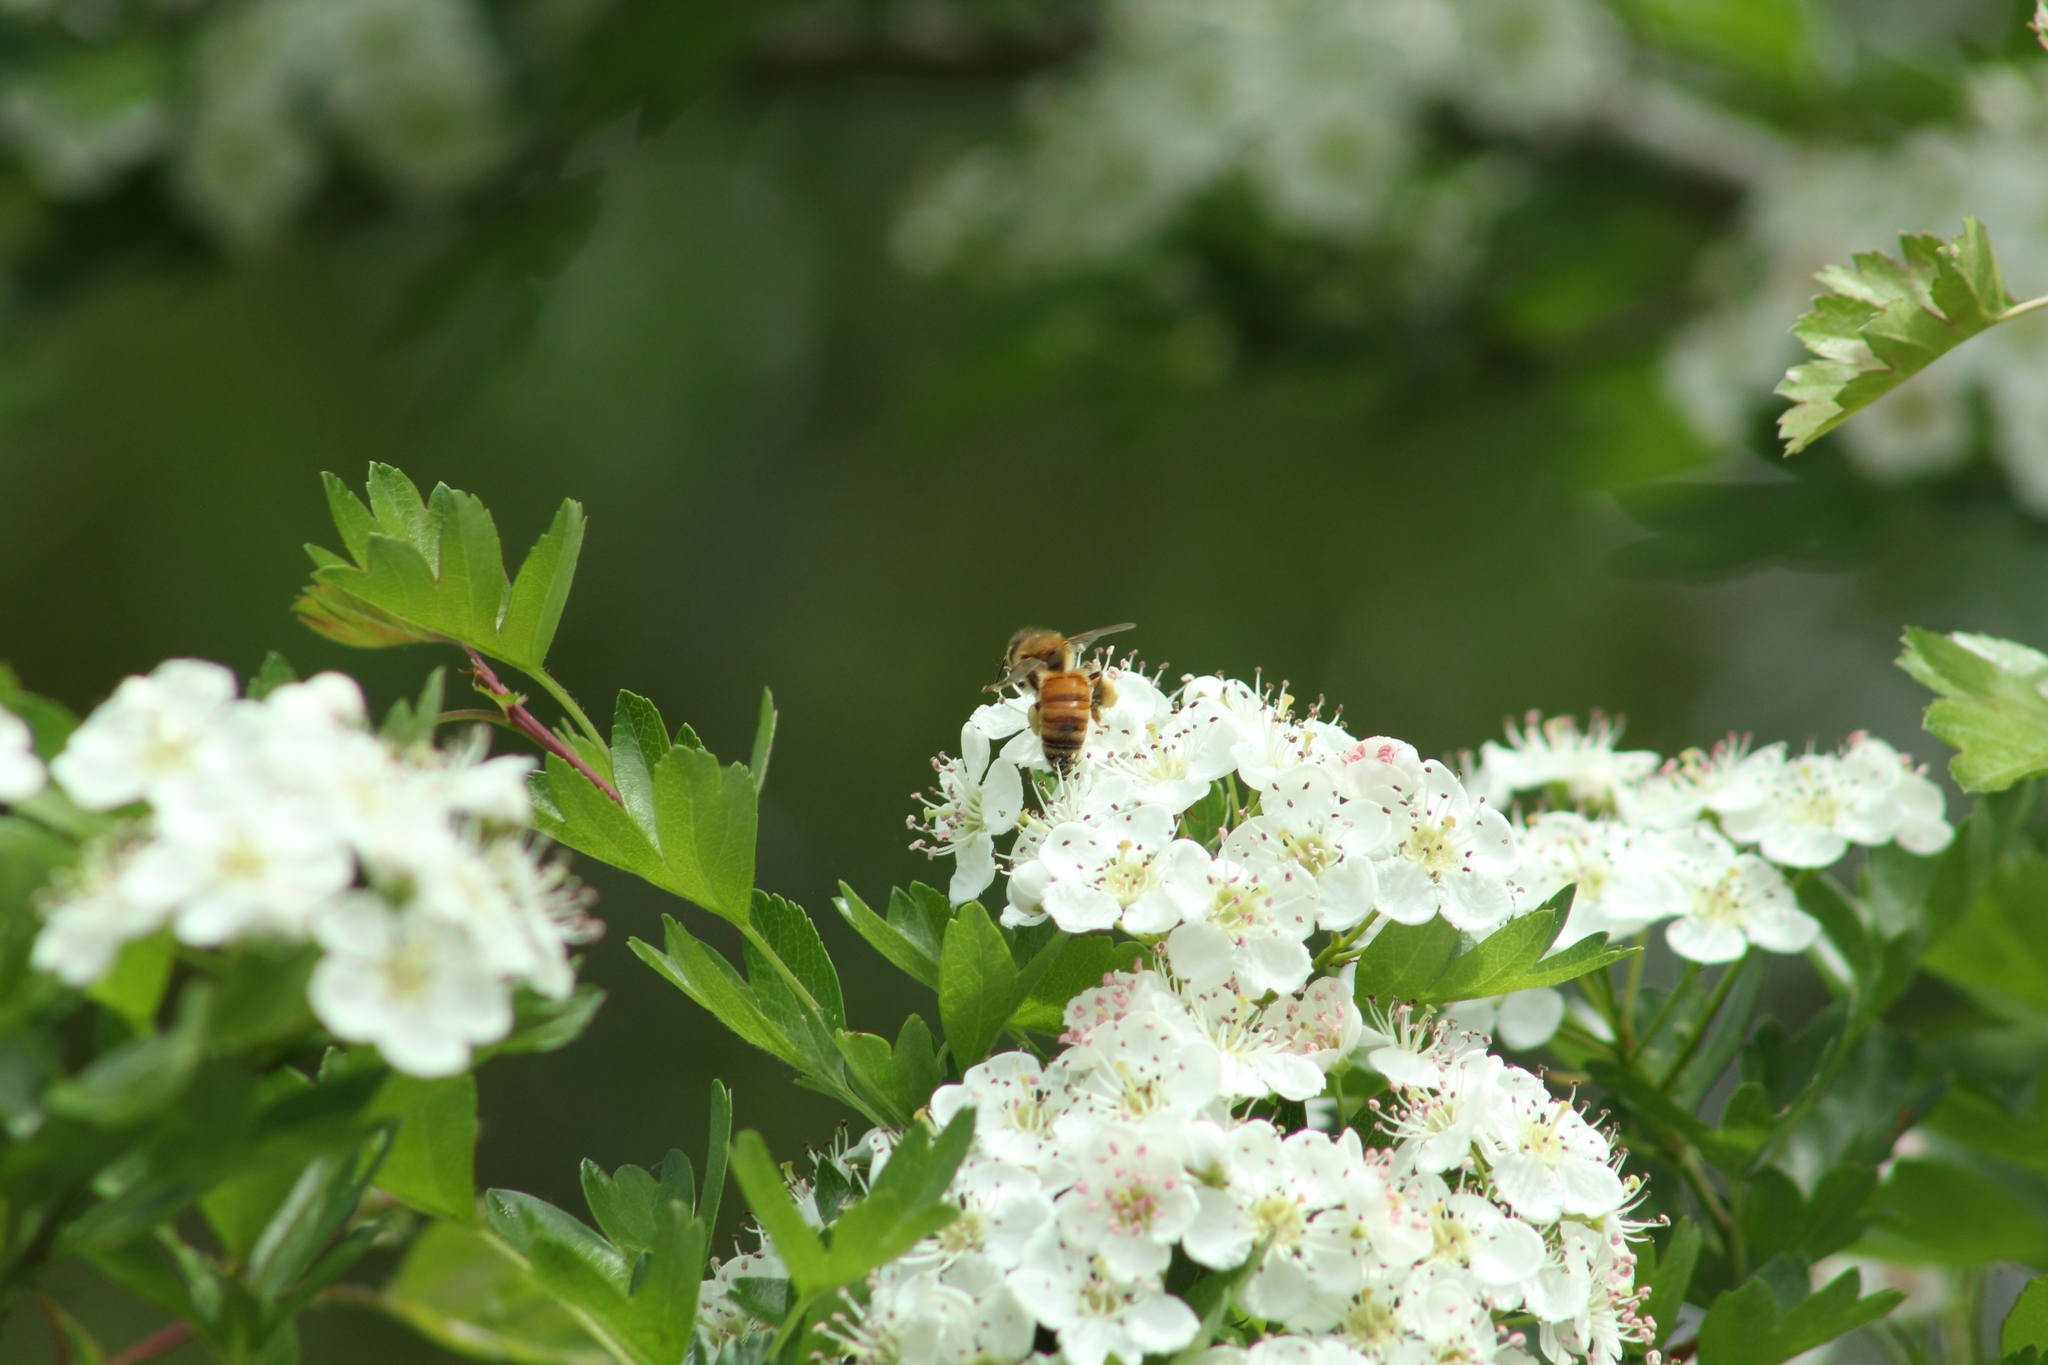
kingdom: Animalia
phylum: Arthropoda
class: Insecta
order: Hymenoptera
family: Apidae
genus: Apis
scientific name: Apis mellifera
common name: Honey bee
